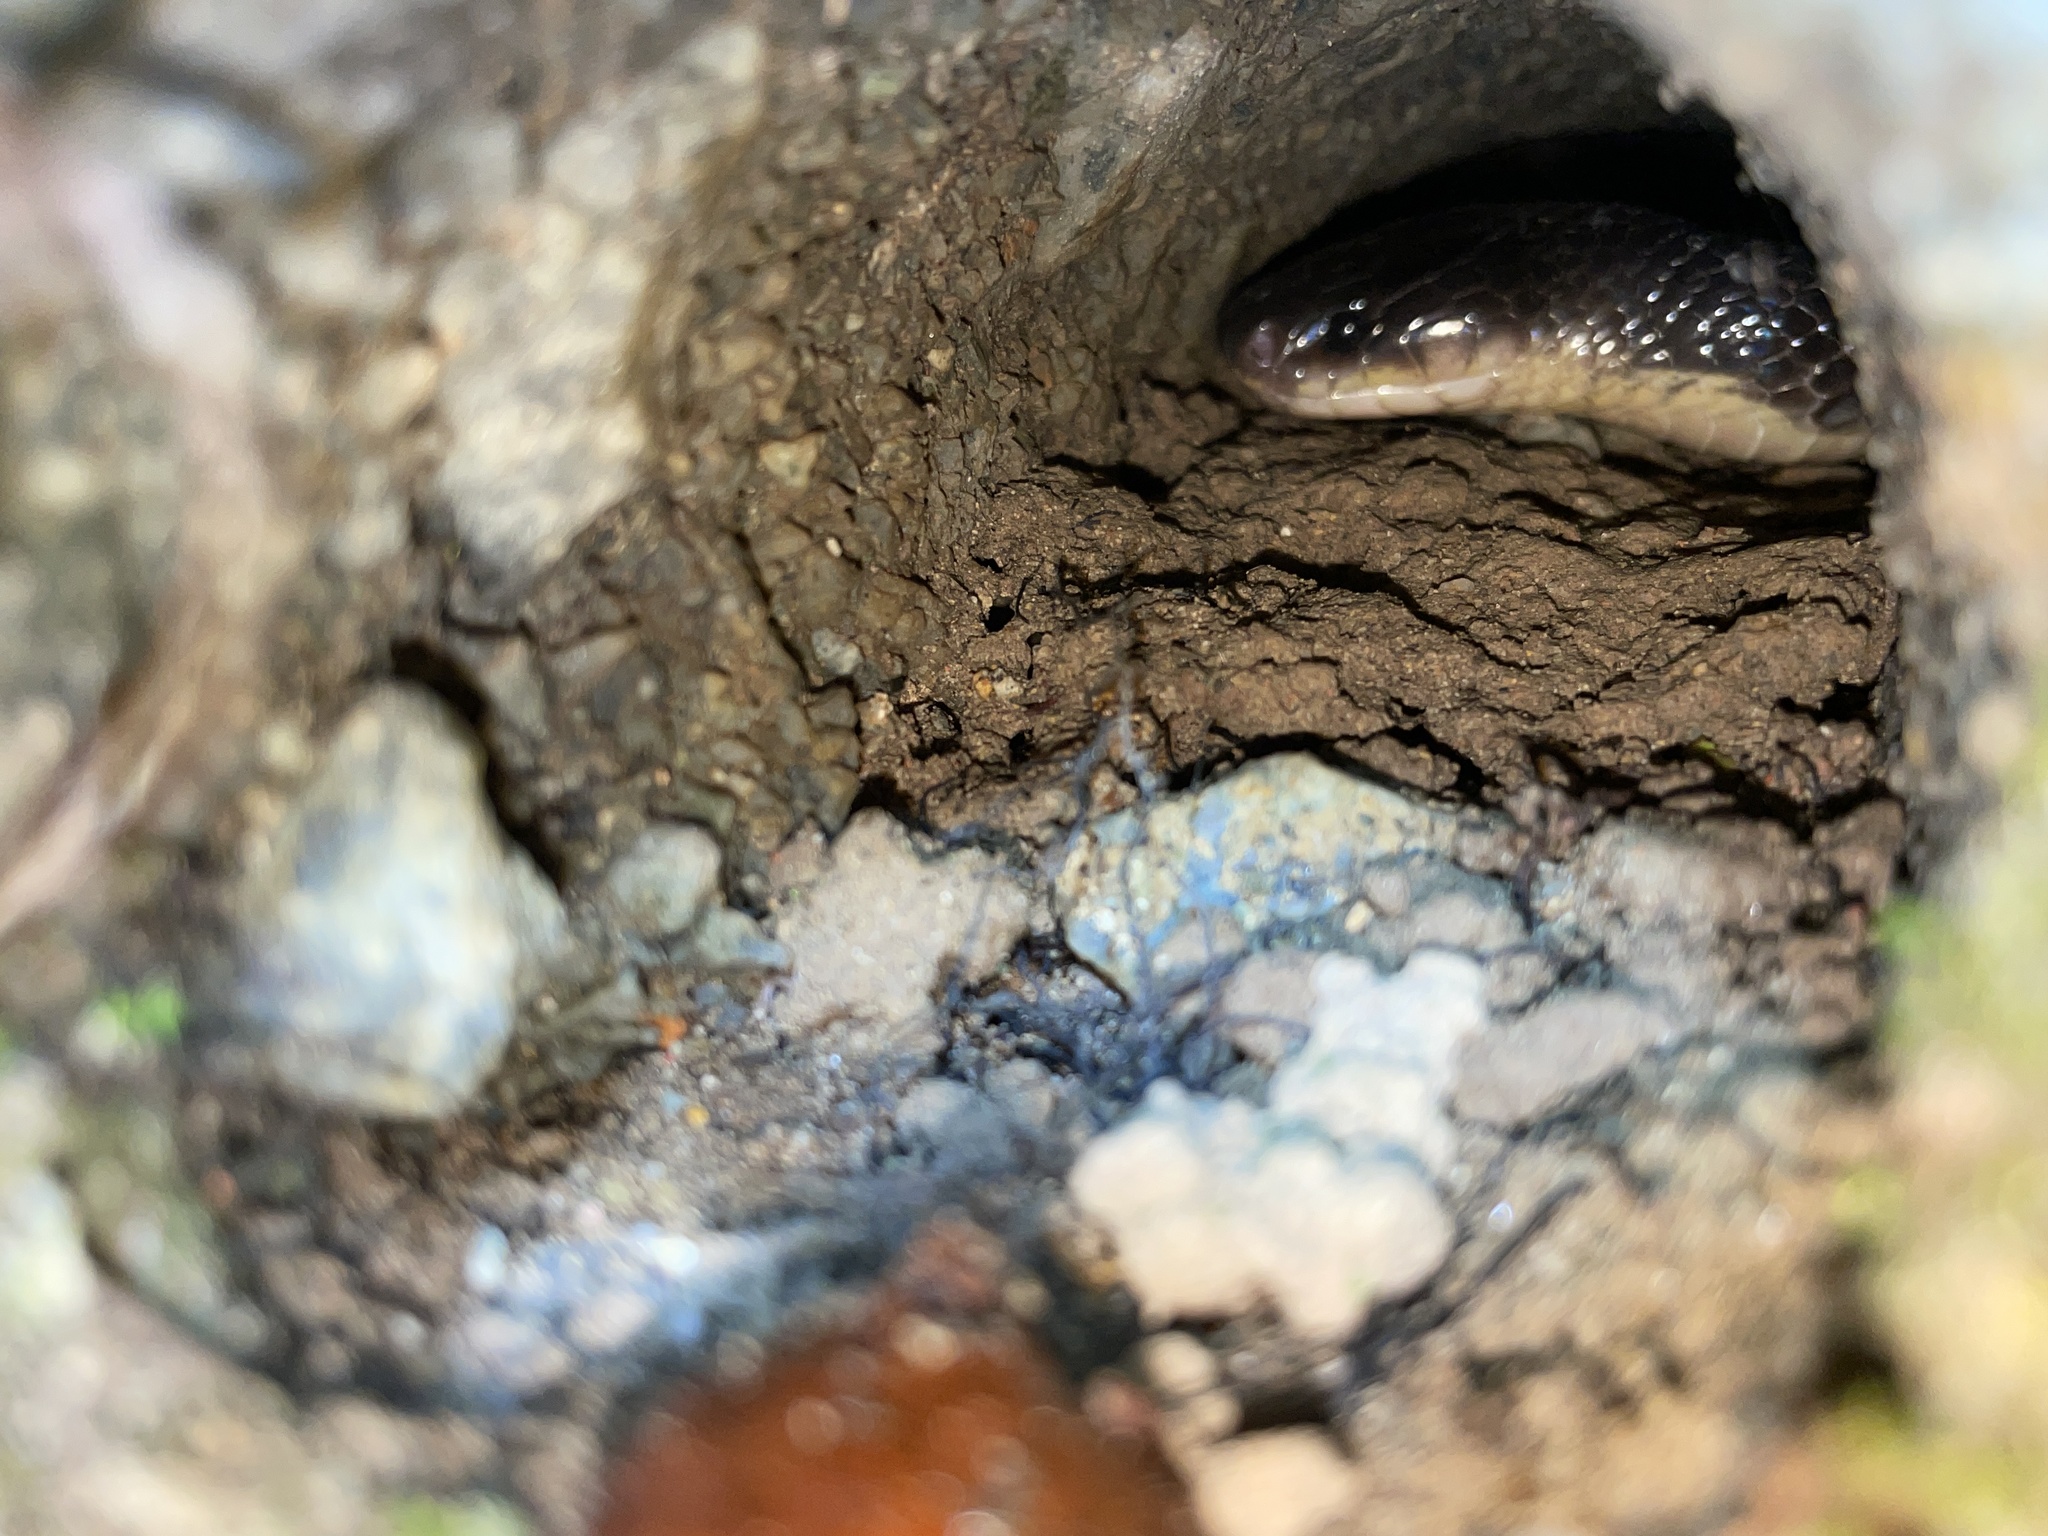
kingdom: Animalia
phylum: Chordata
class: Squamata
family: Elapidae
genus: Bungarus
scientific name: Bungarus multicinctus
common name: Many-banded krait
